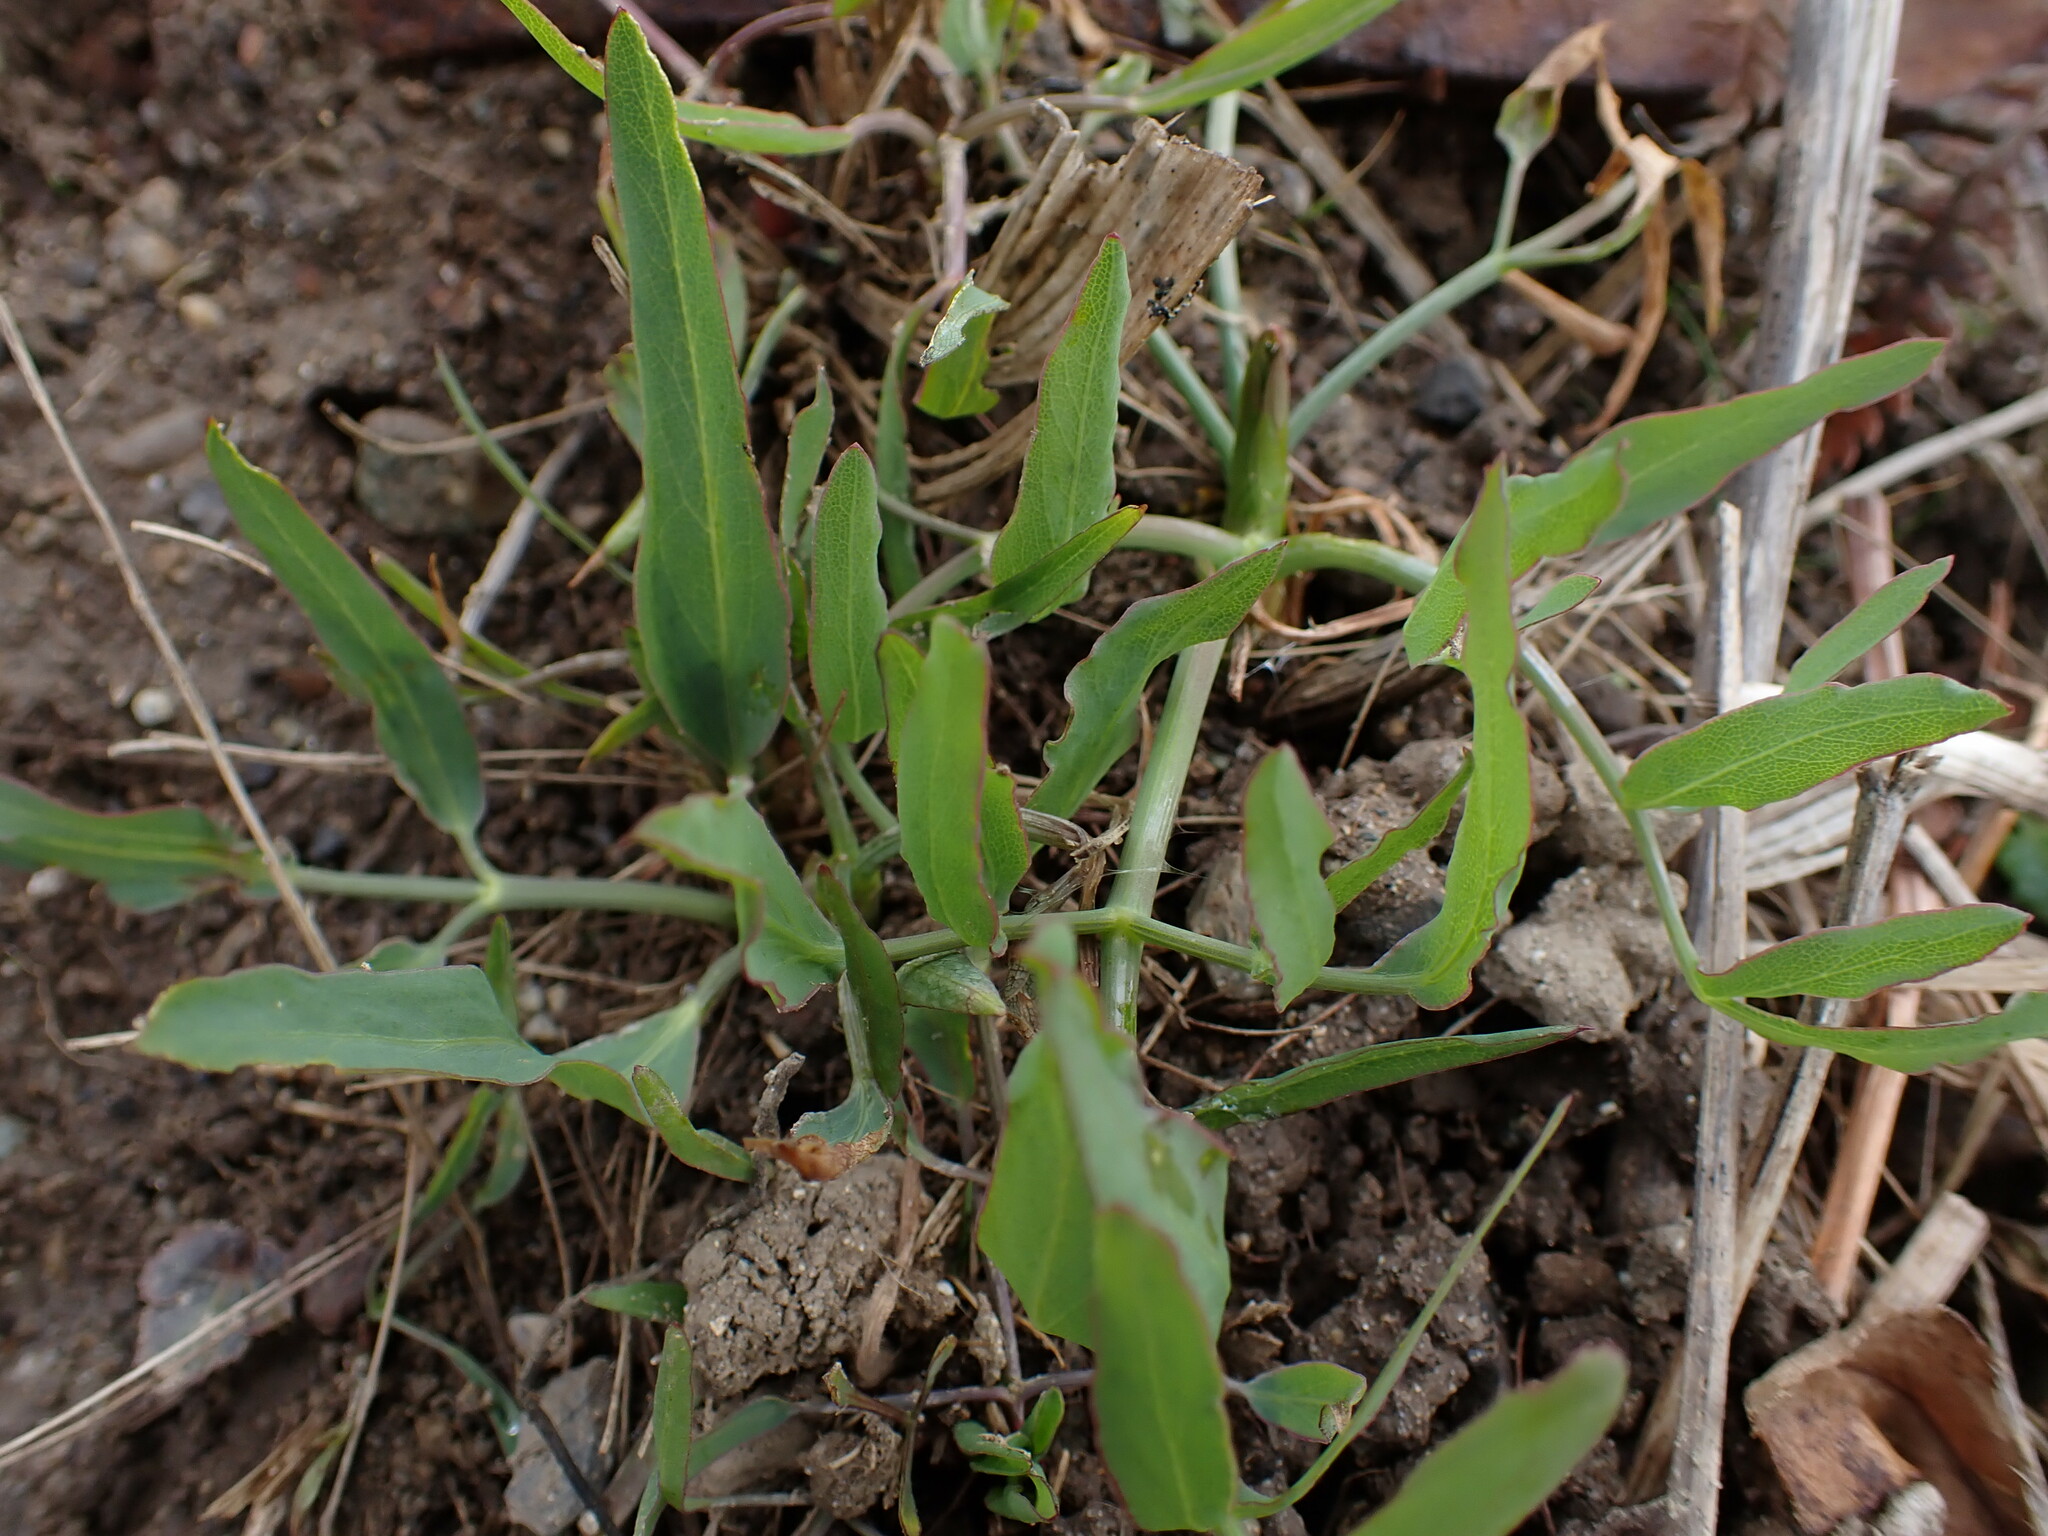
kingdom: Plantae
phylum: Tracheophyta
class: Magnoliopsida
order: Apiales
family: Apiaceae
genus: Lomatium
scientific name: Lomatium nudicaule
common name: Pestle lomatium
